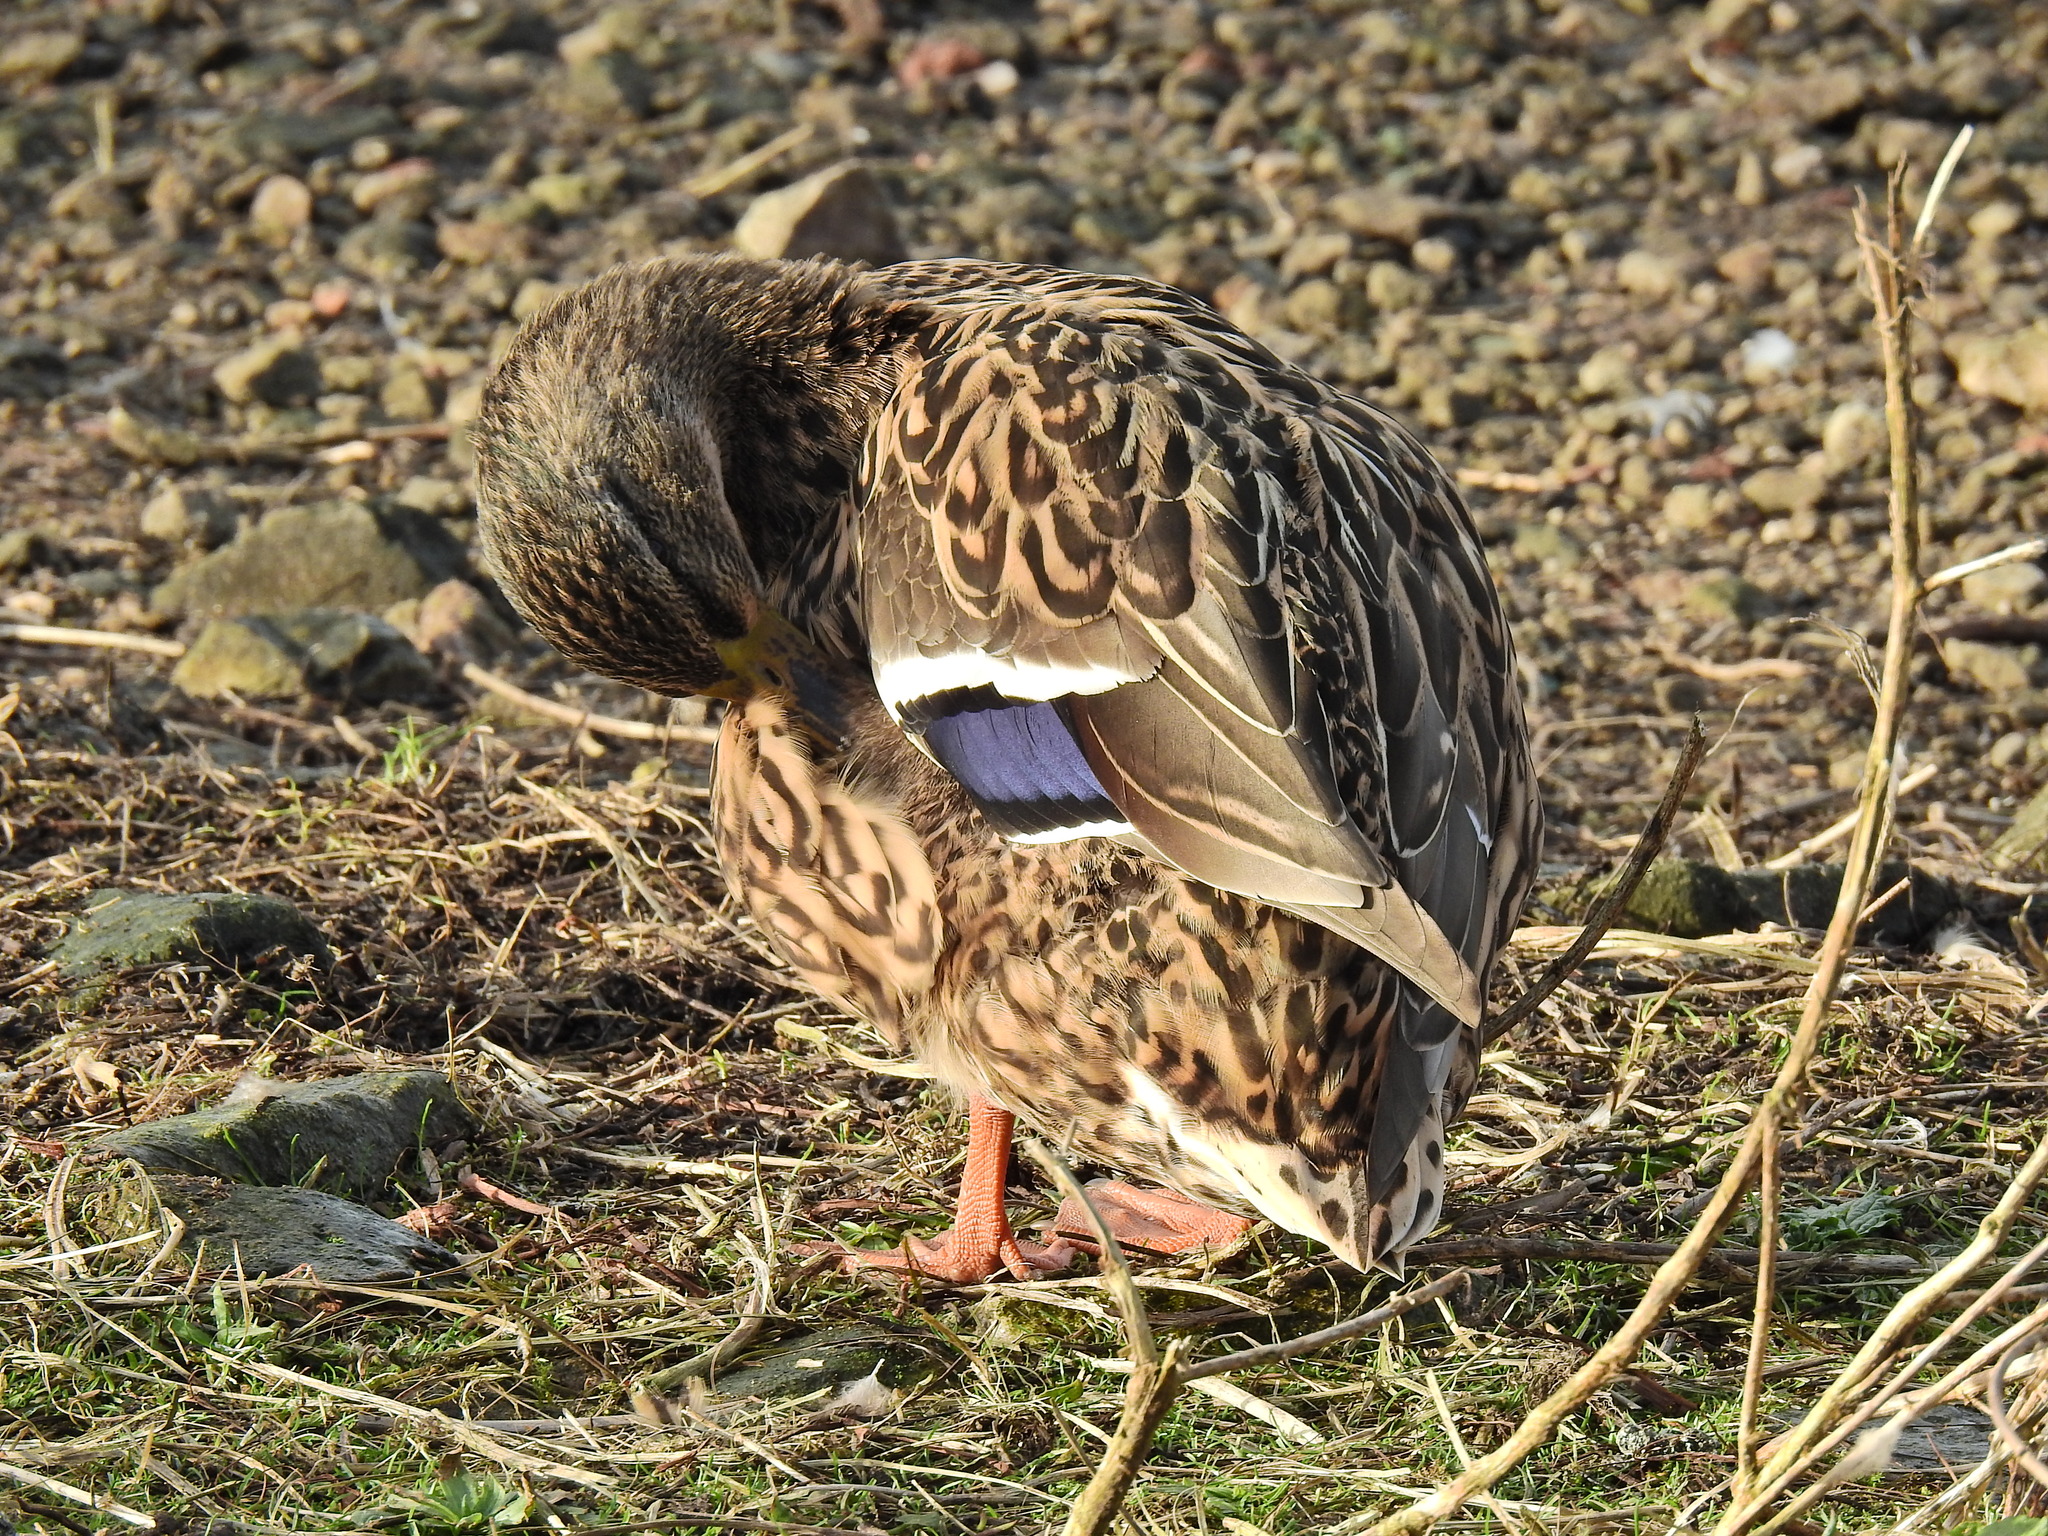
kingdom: Animalia
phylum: Chordata
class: Aves
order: Anseriformes
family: Anatidae
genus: Anas
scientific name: Anas platyrhynchos
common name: Mallard
